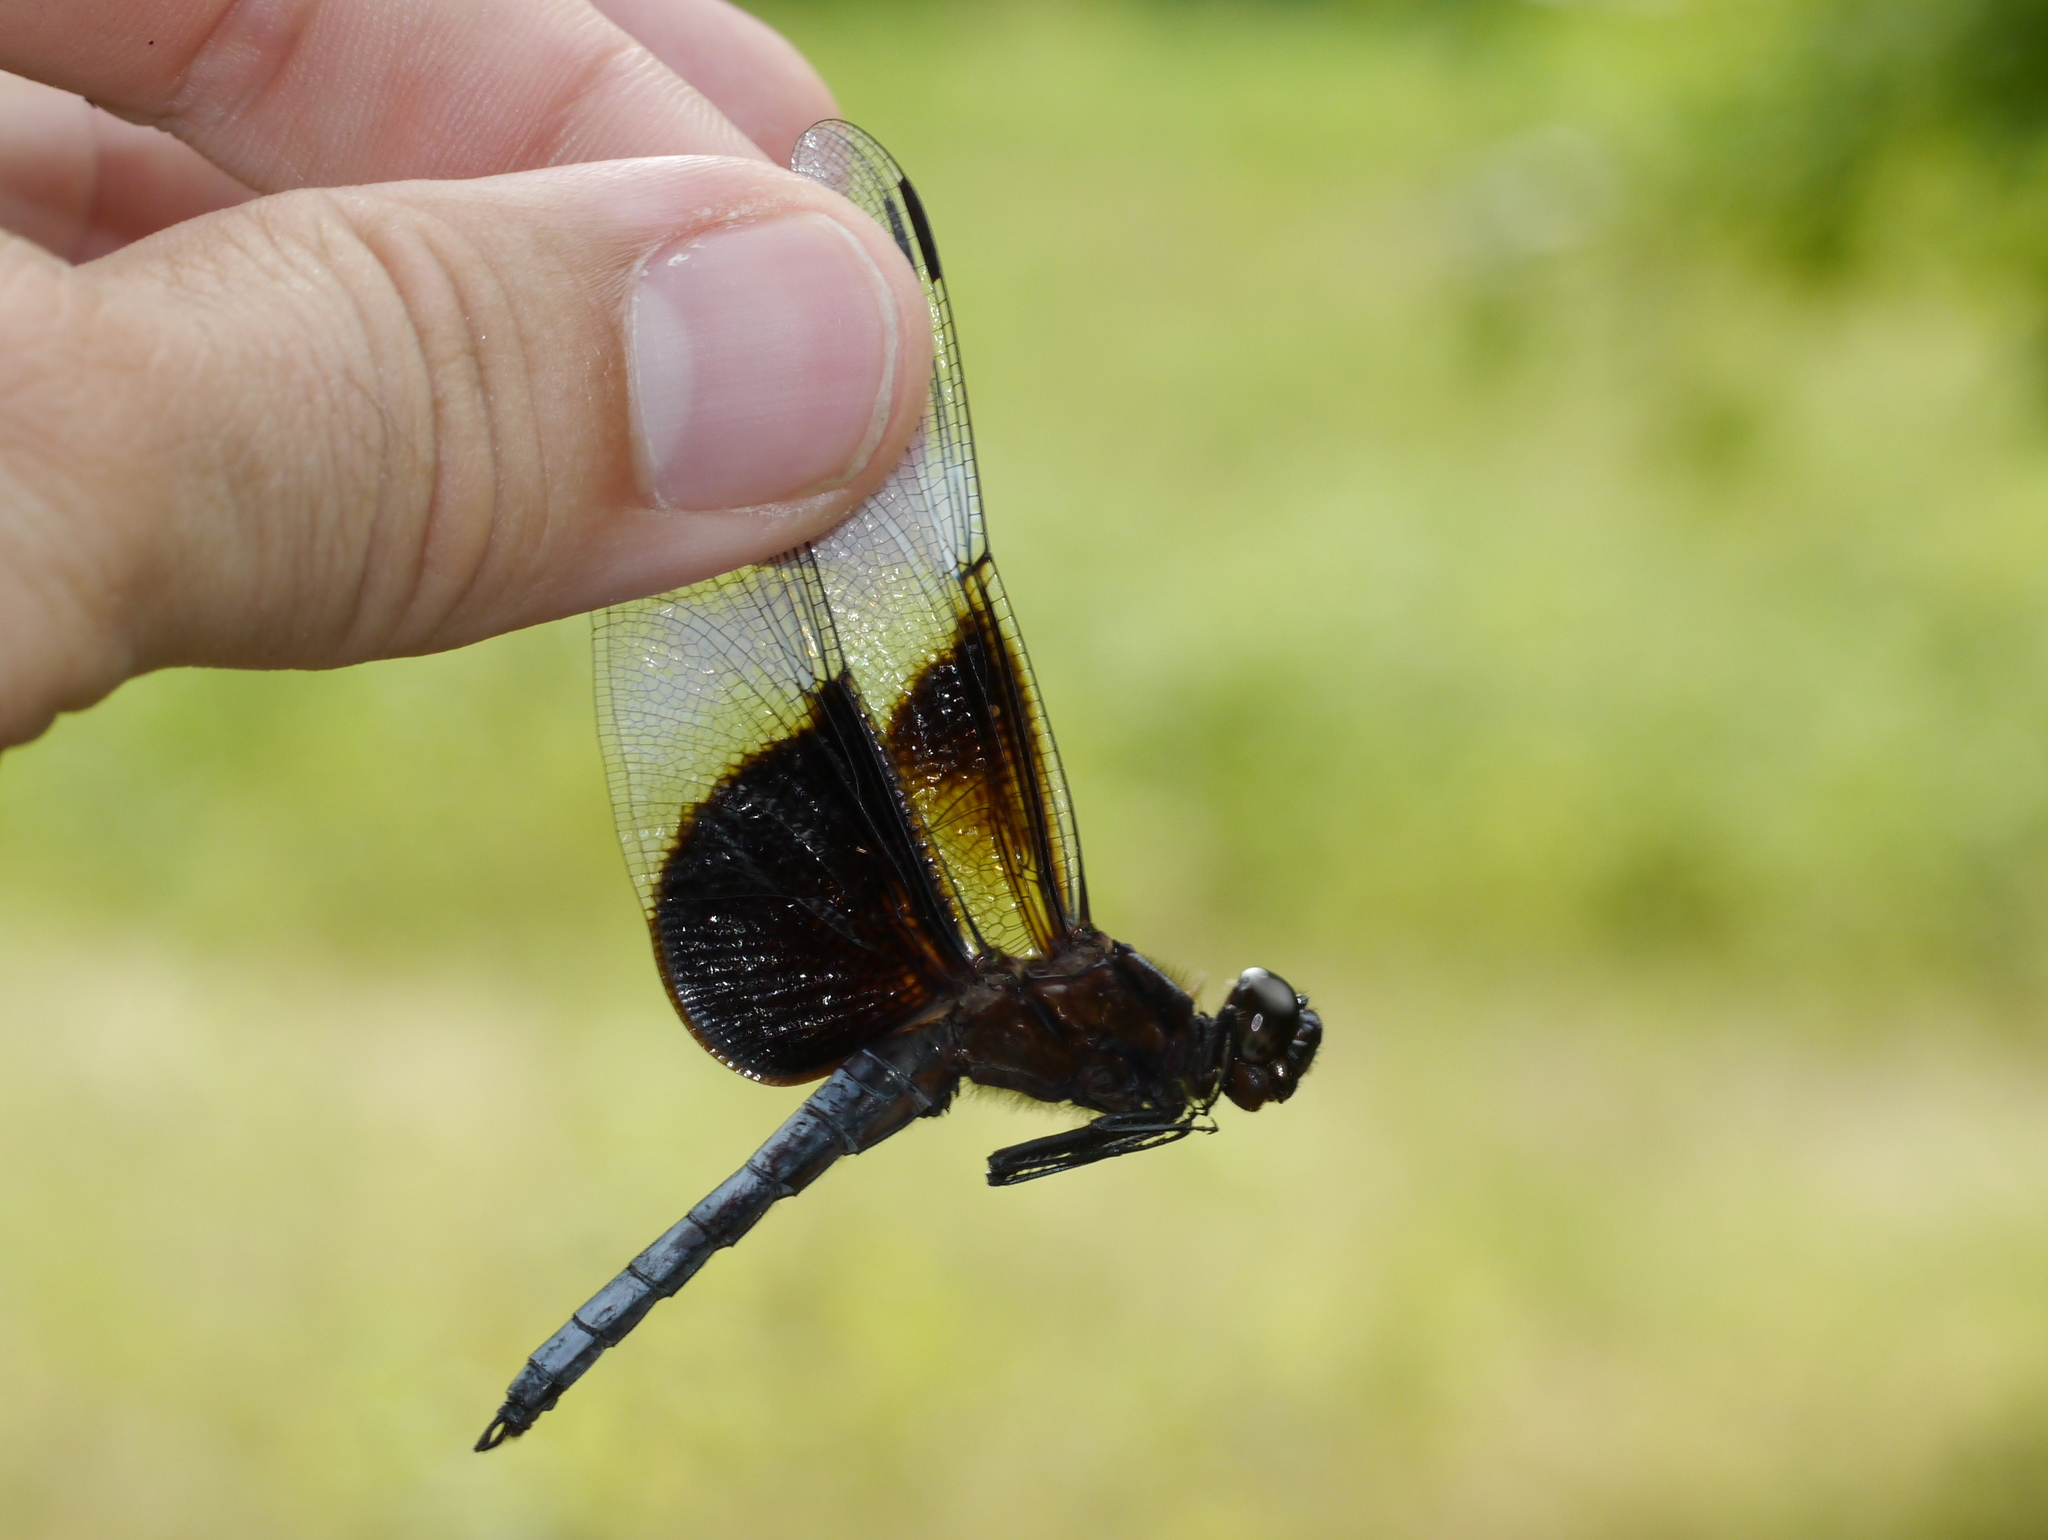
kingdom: Animalia
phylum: Arthropoda
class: Insecta
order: Odonata
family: Libellulidae
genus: Libellula
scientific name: Libellula luctuosa
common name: Widow skimmer
